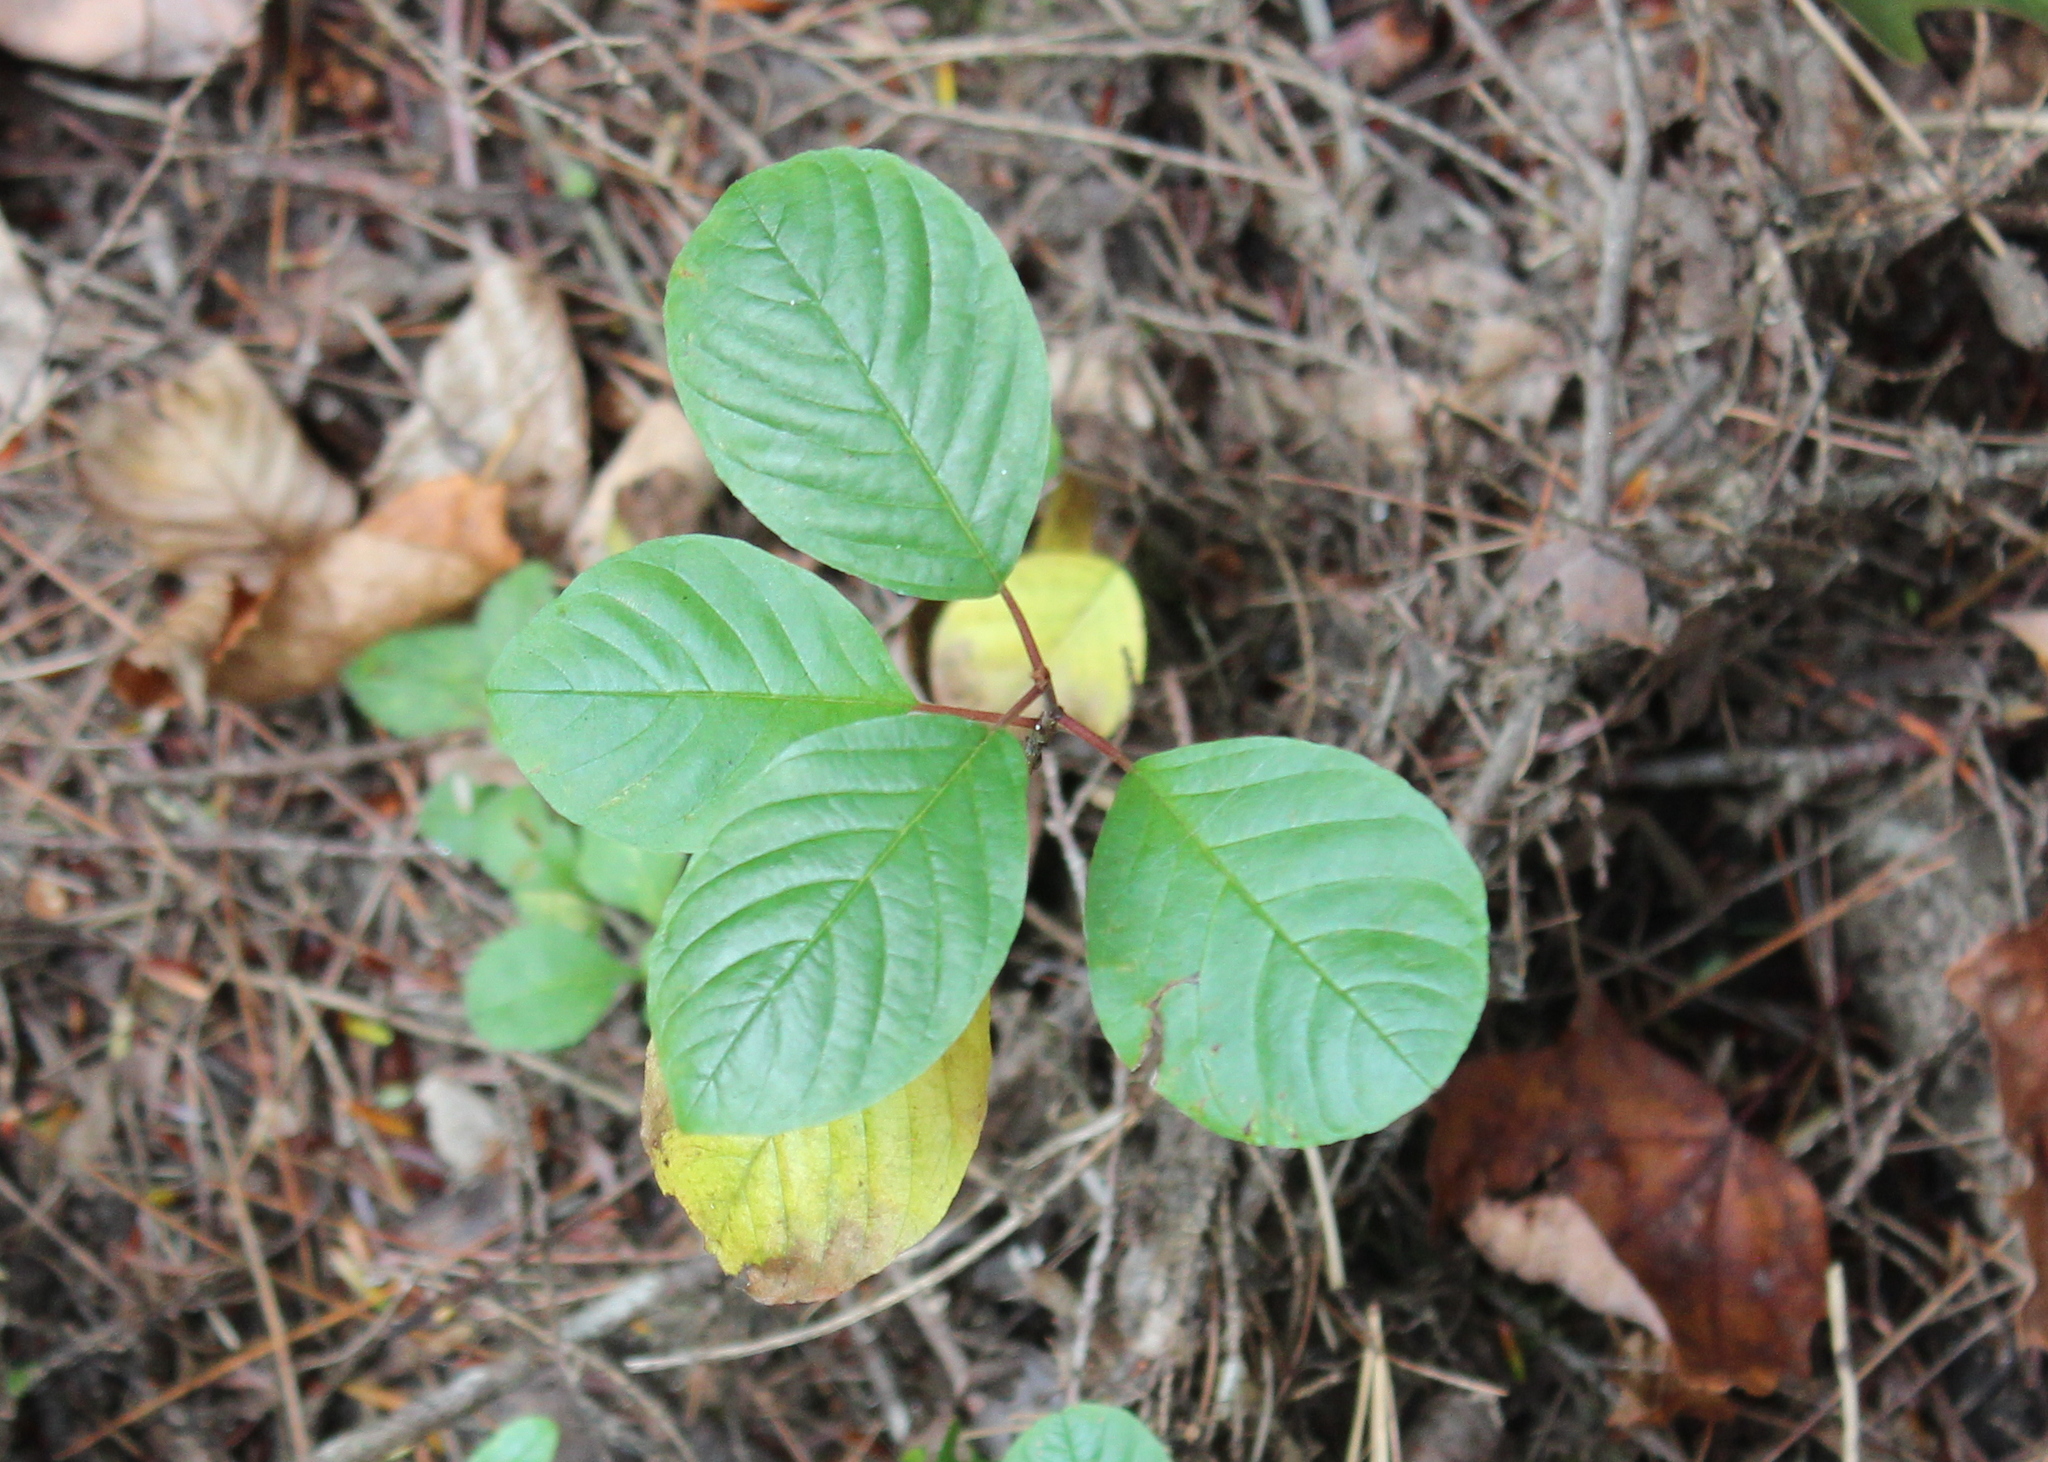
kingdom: Plantae
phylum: Tracheophyta
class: Magnoliopsida
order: Rosales
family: Rhamnaceae
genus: Frangula
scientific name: Frangula alnus
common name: Alder buckthorn
